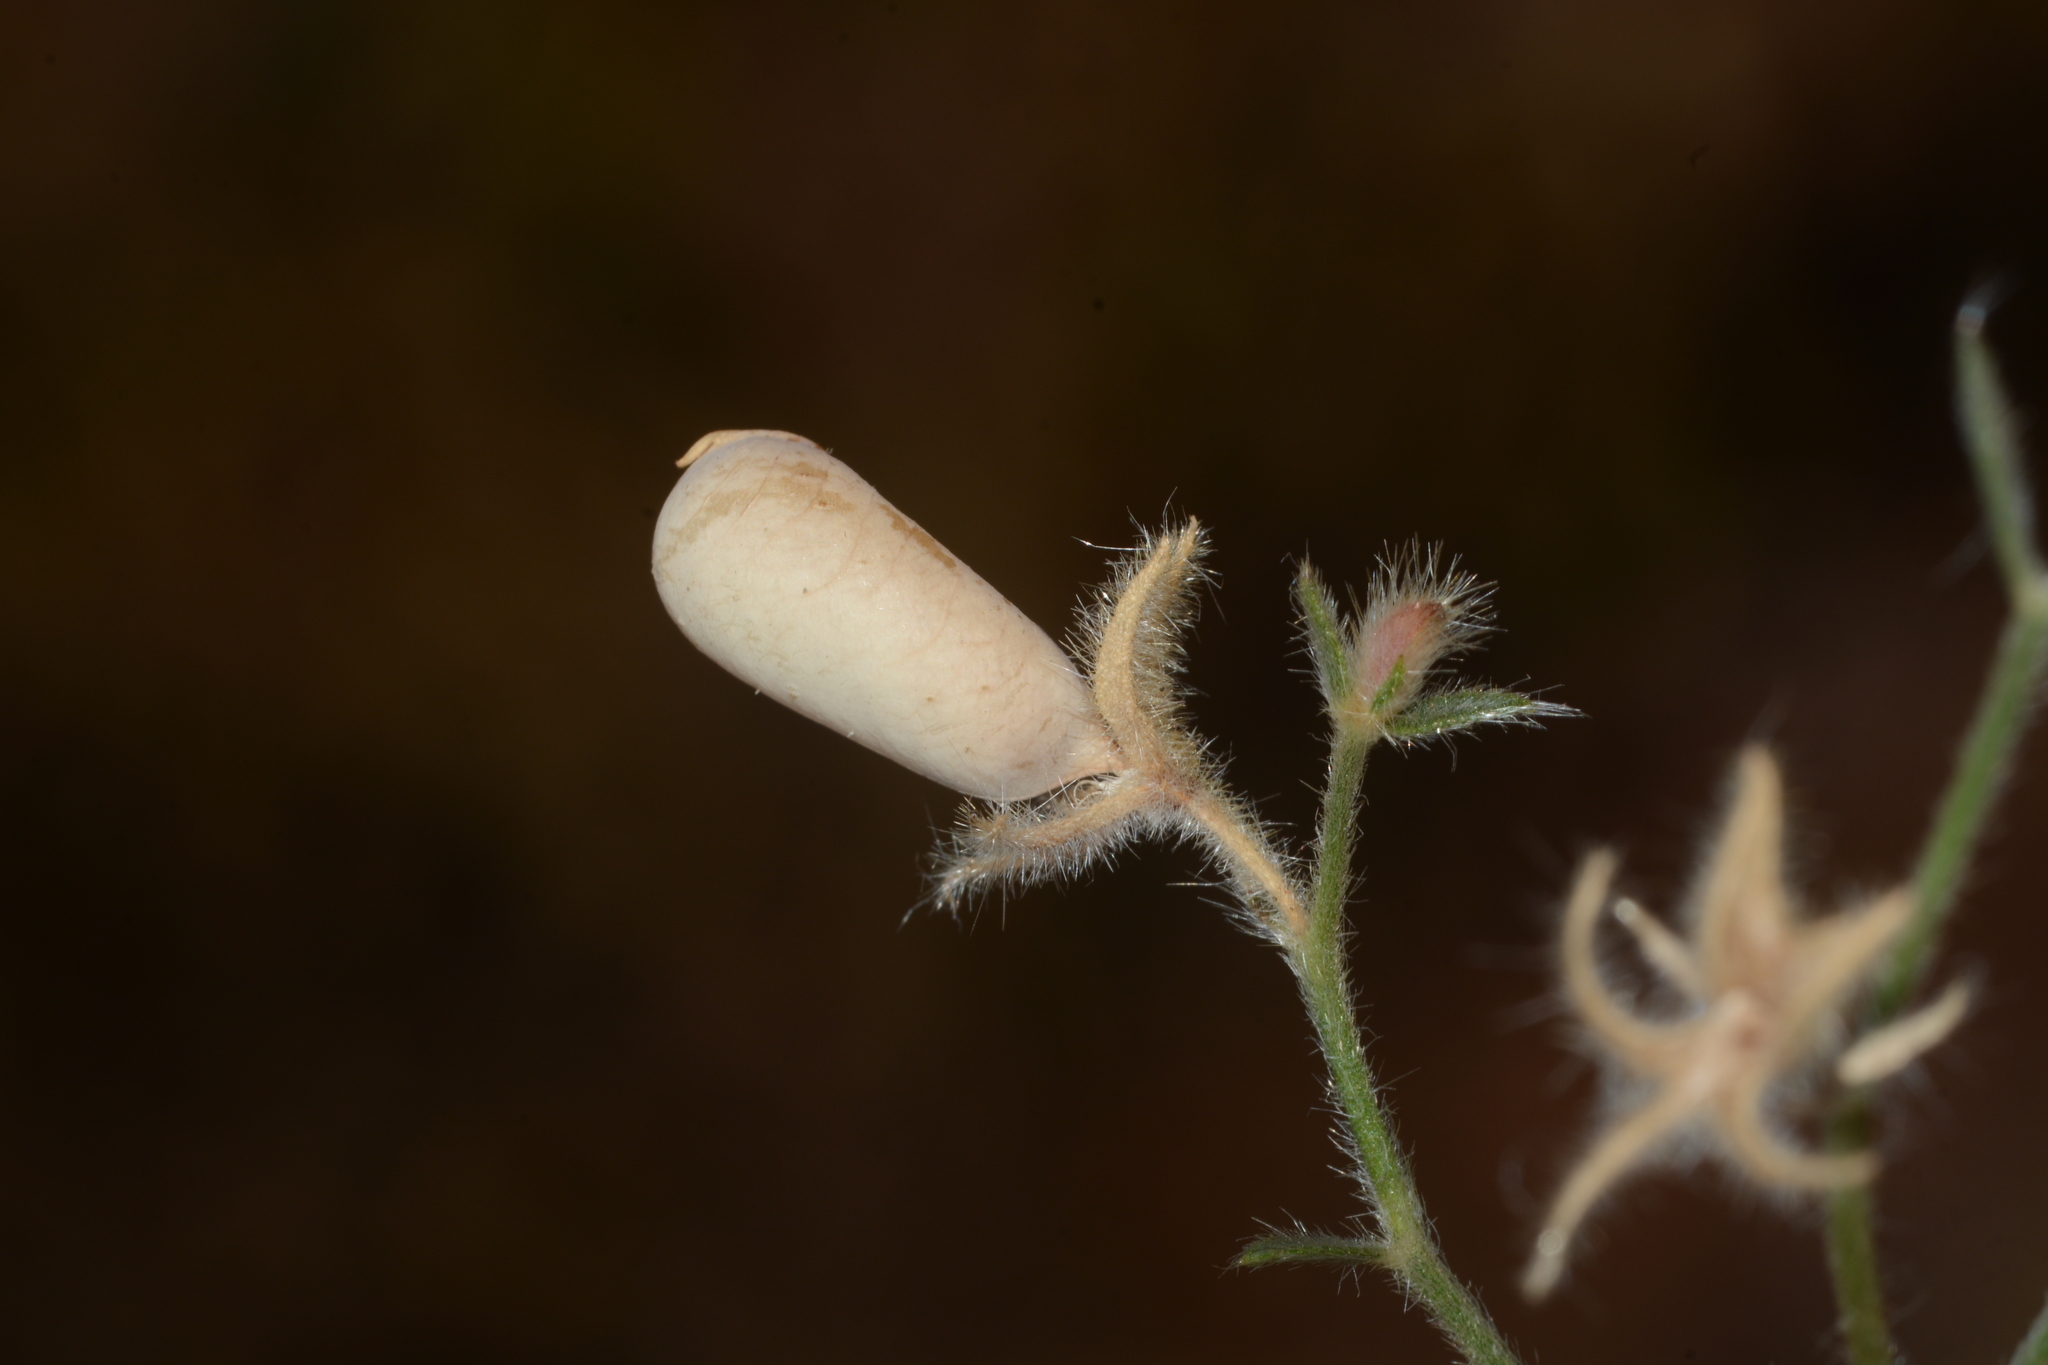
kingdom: Plantae
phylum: Tracheophyta
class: Magnoliopsida
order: Fabales
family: Fabaceae
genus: Crotalaria
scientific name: Crotalaria orixensis
